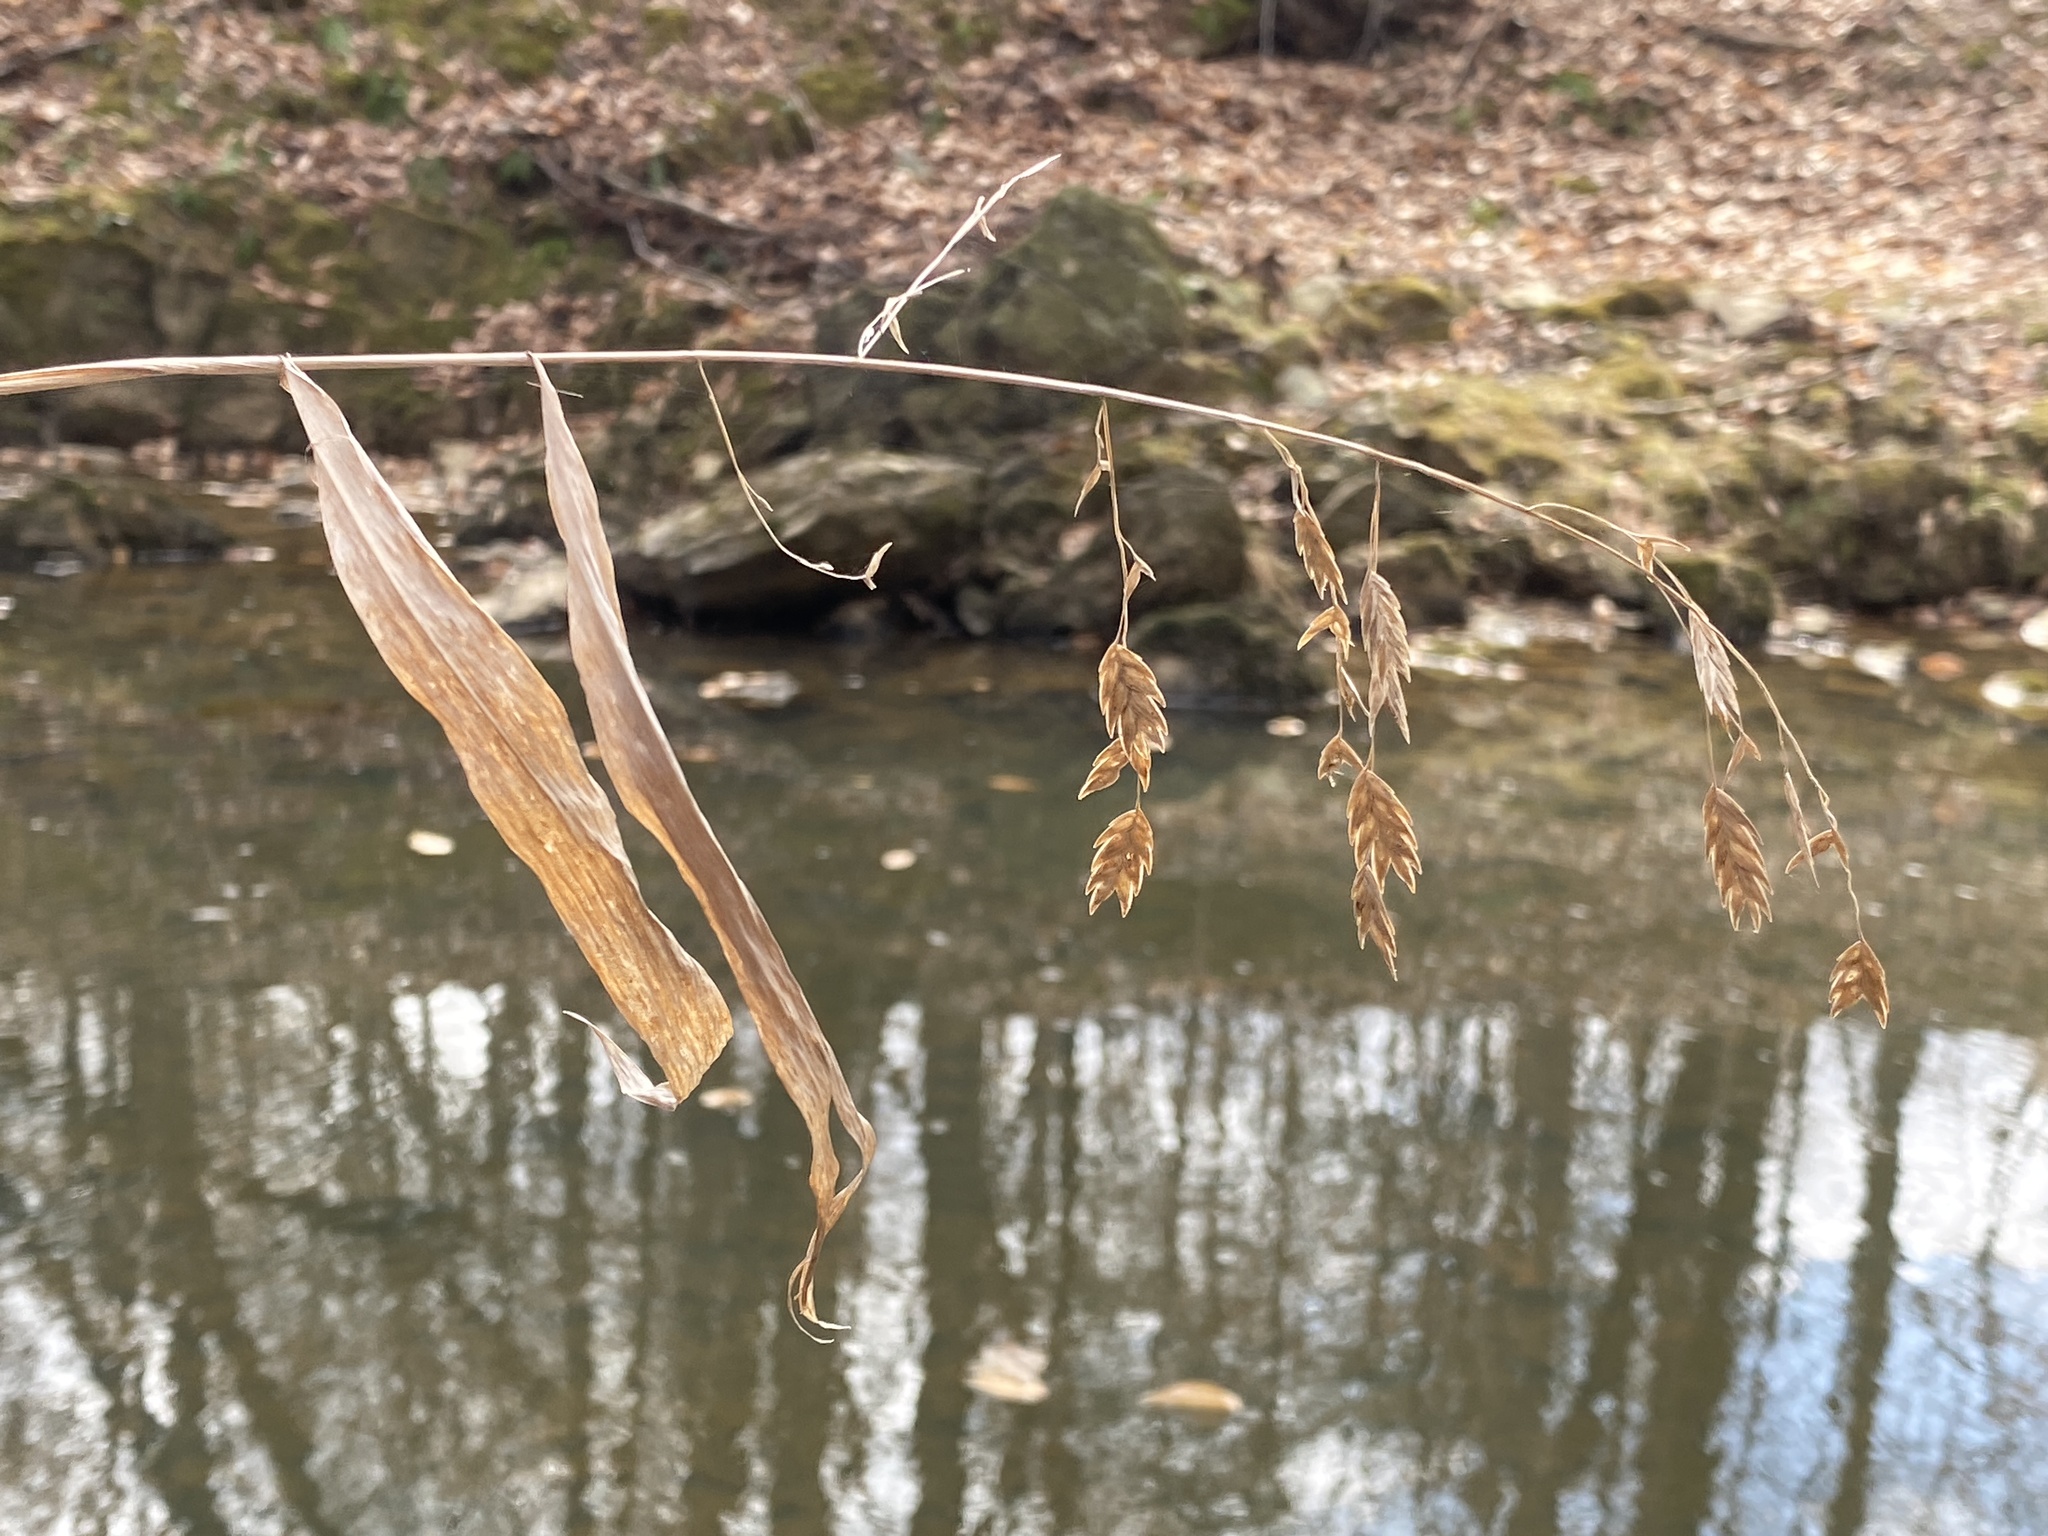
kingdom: Plantae
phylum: Tracheophyta
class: Liliopsida
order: Poales
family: Poaceae
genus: Chasmanthium
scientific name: Chasmanthium latifolium
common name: Broad-leaved chasmanthium
